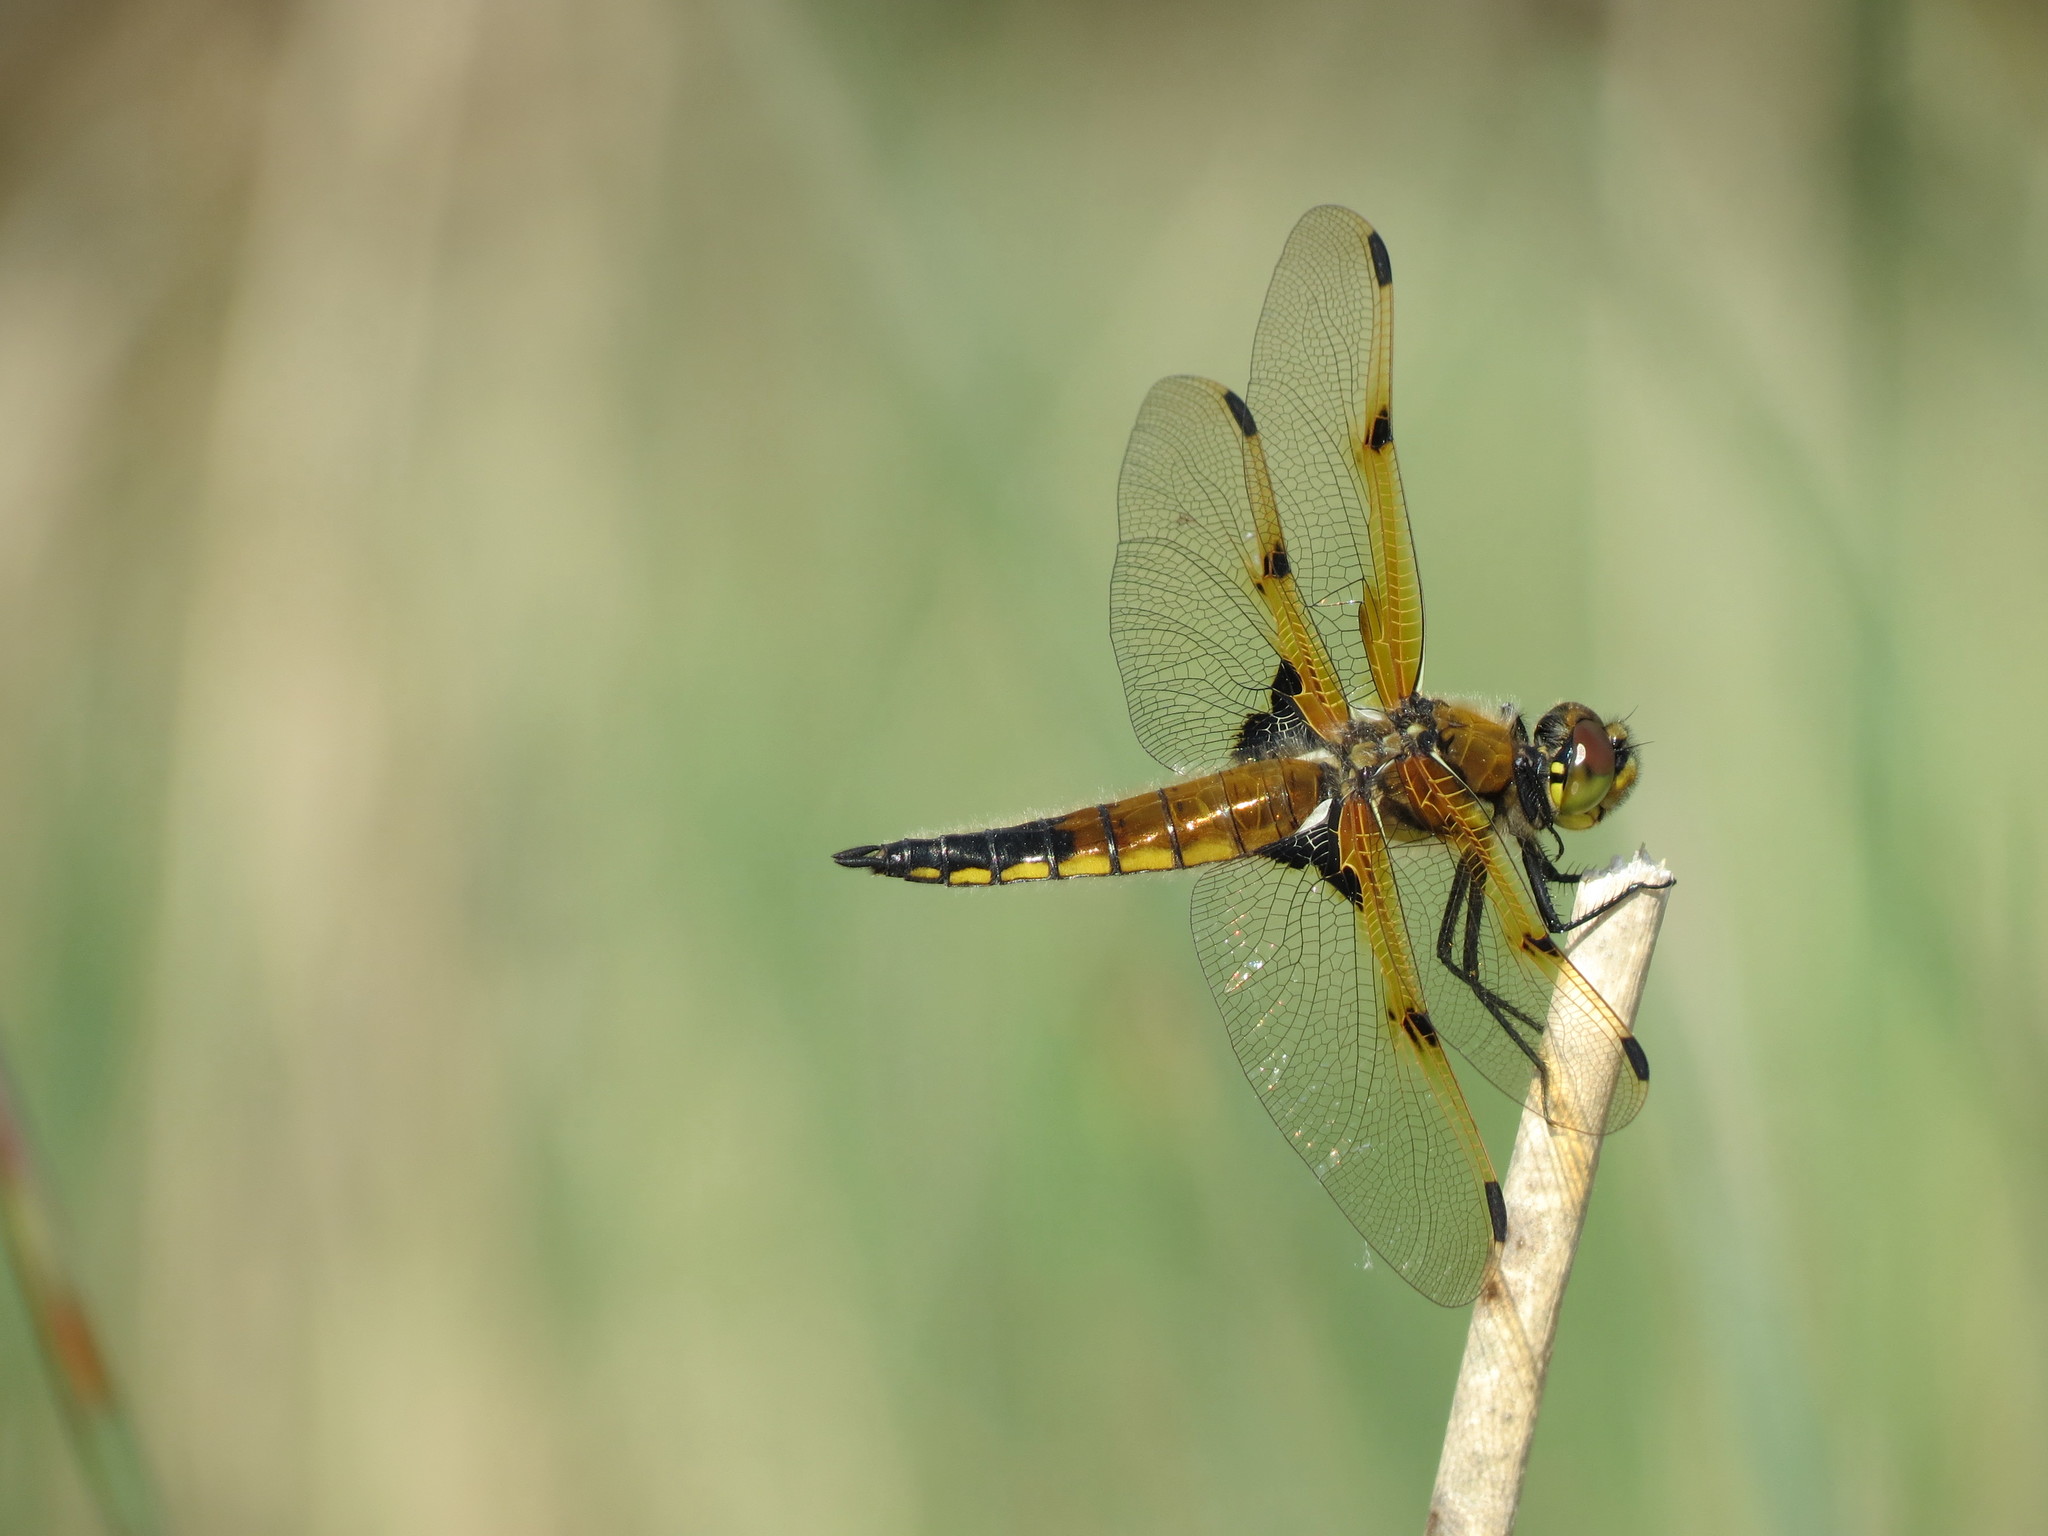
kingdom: Animalia
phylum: Arthropoda
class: Insecta
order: Odonata
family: Libellulidae
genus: Libellula
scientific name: Libellula quadrimaculata
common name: Four-spotted chaser
